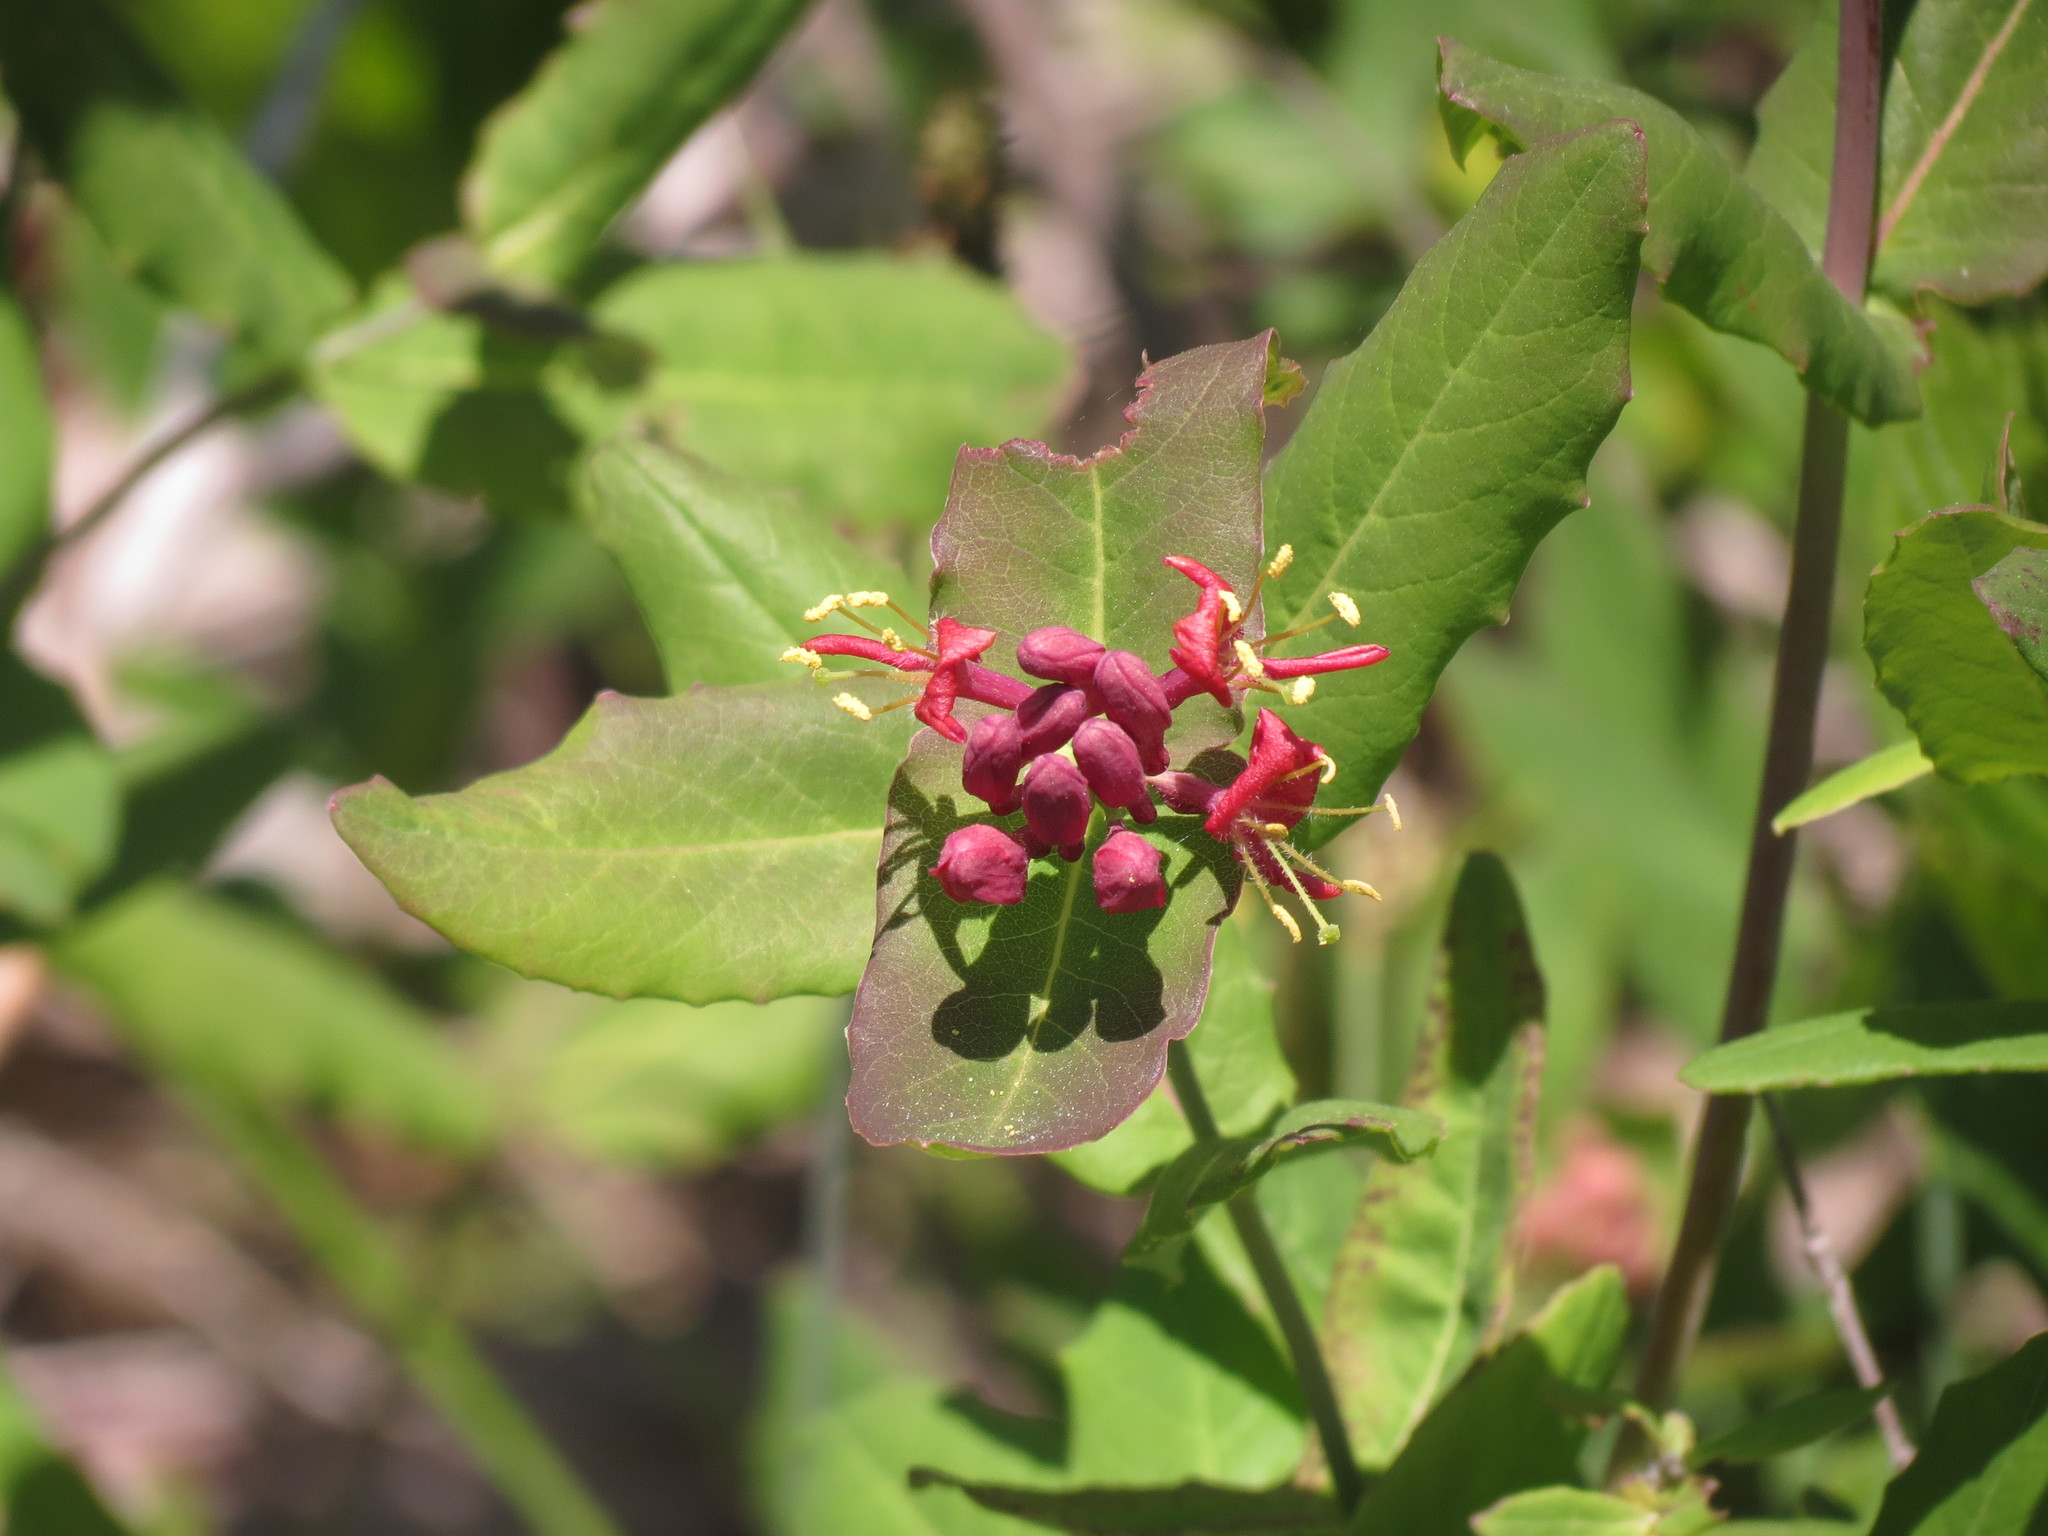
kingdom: Plantae
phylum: Tracheophyta
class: Magnoliopsida
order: Dipsacales
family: Caprifoliaceae
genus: Lonicera
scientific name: Lonicera dioica
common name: Limber honeysuckle
